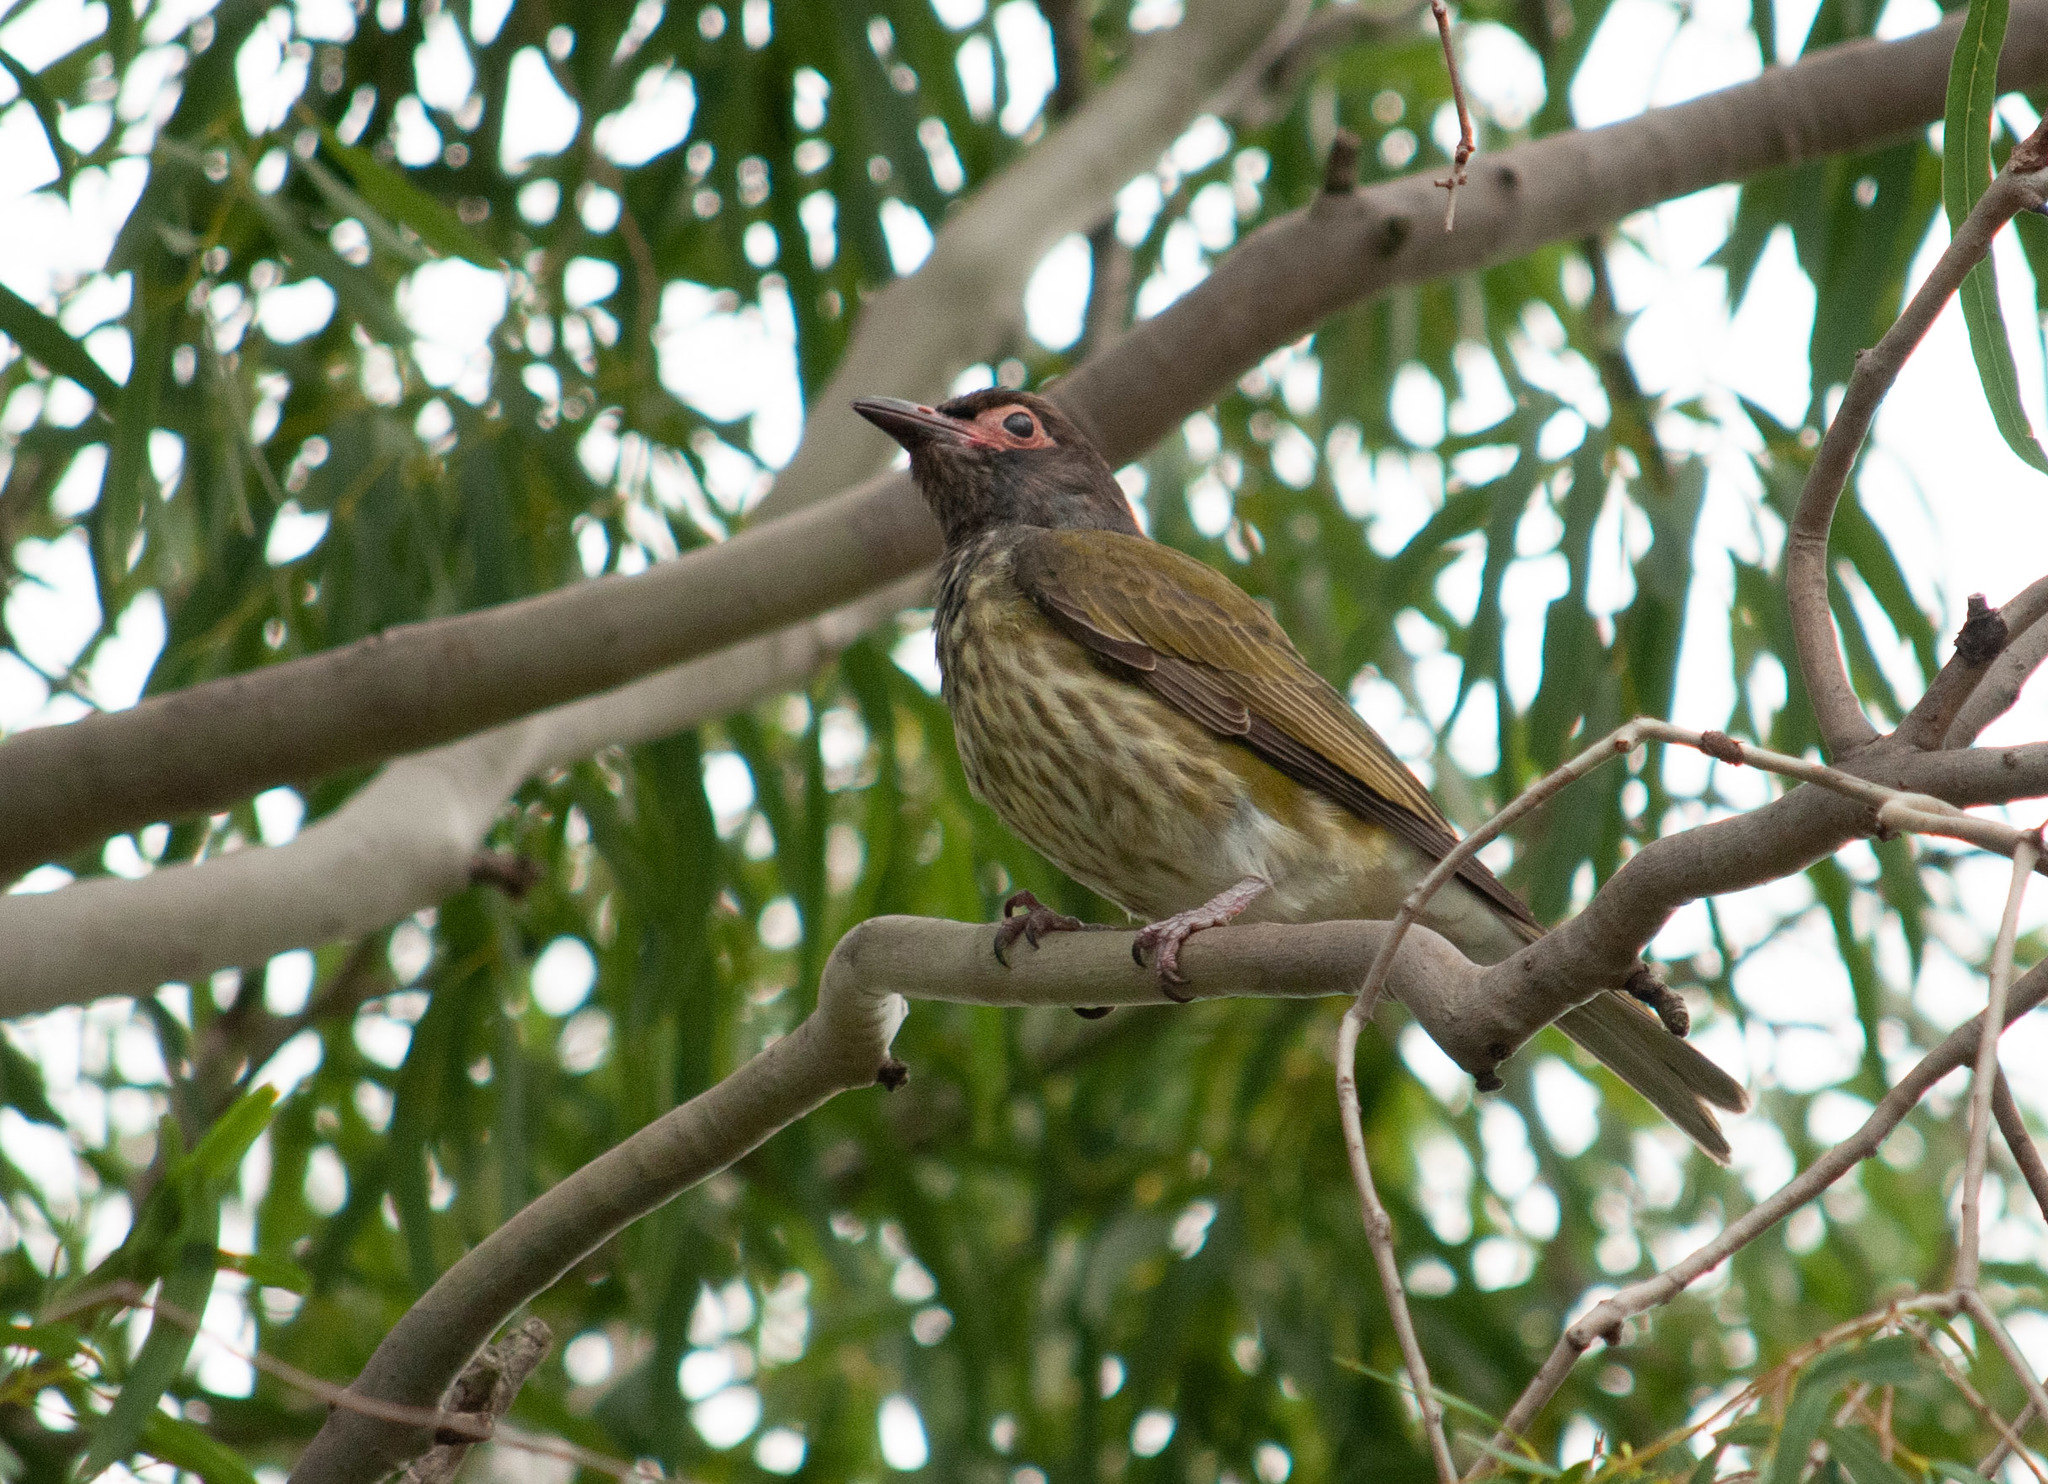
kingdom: Animalia
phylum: Chordata
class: Aves
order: Passeriformes
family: Oriolidae
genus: Sphecotheres
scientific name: Sphecotheres vieilloti
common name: Australasian figbird
